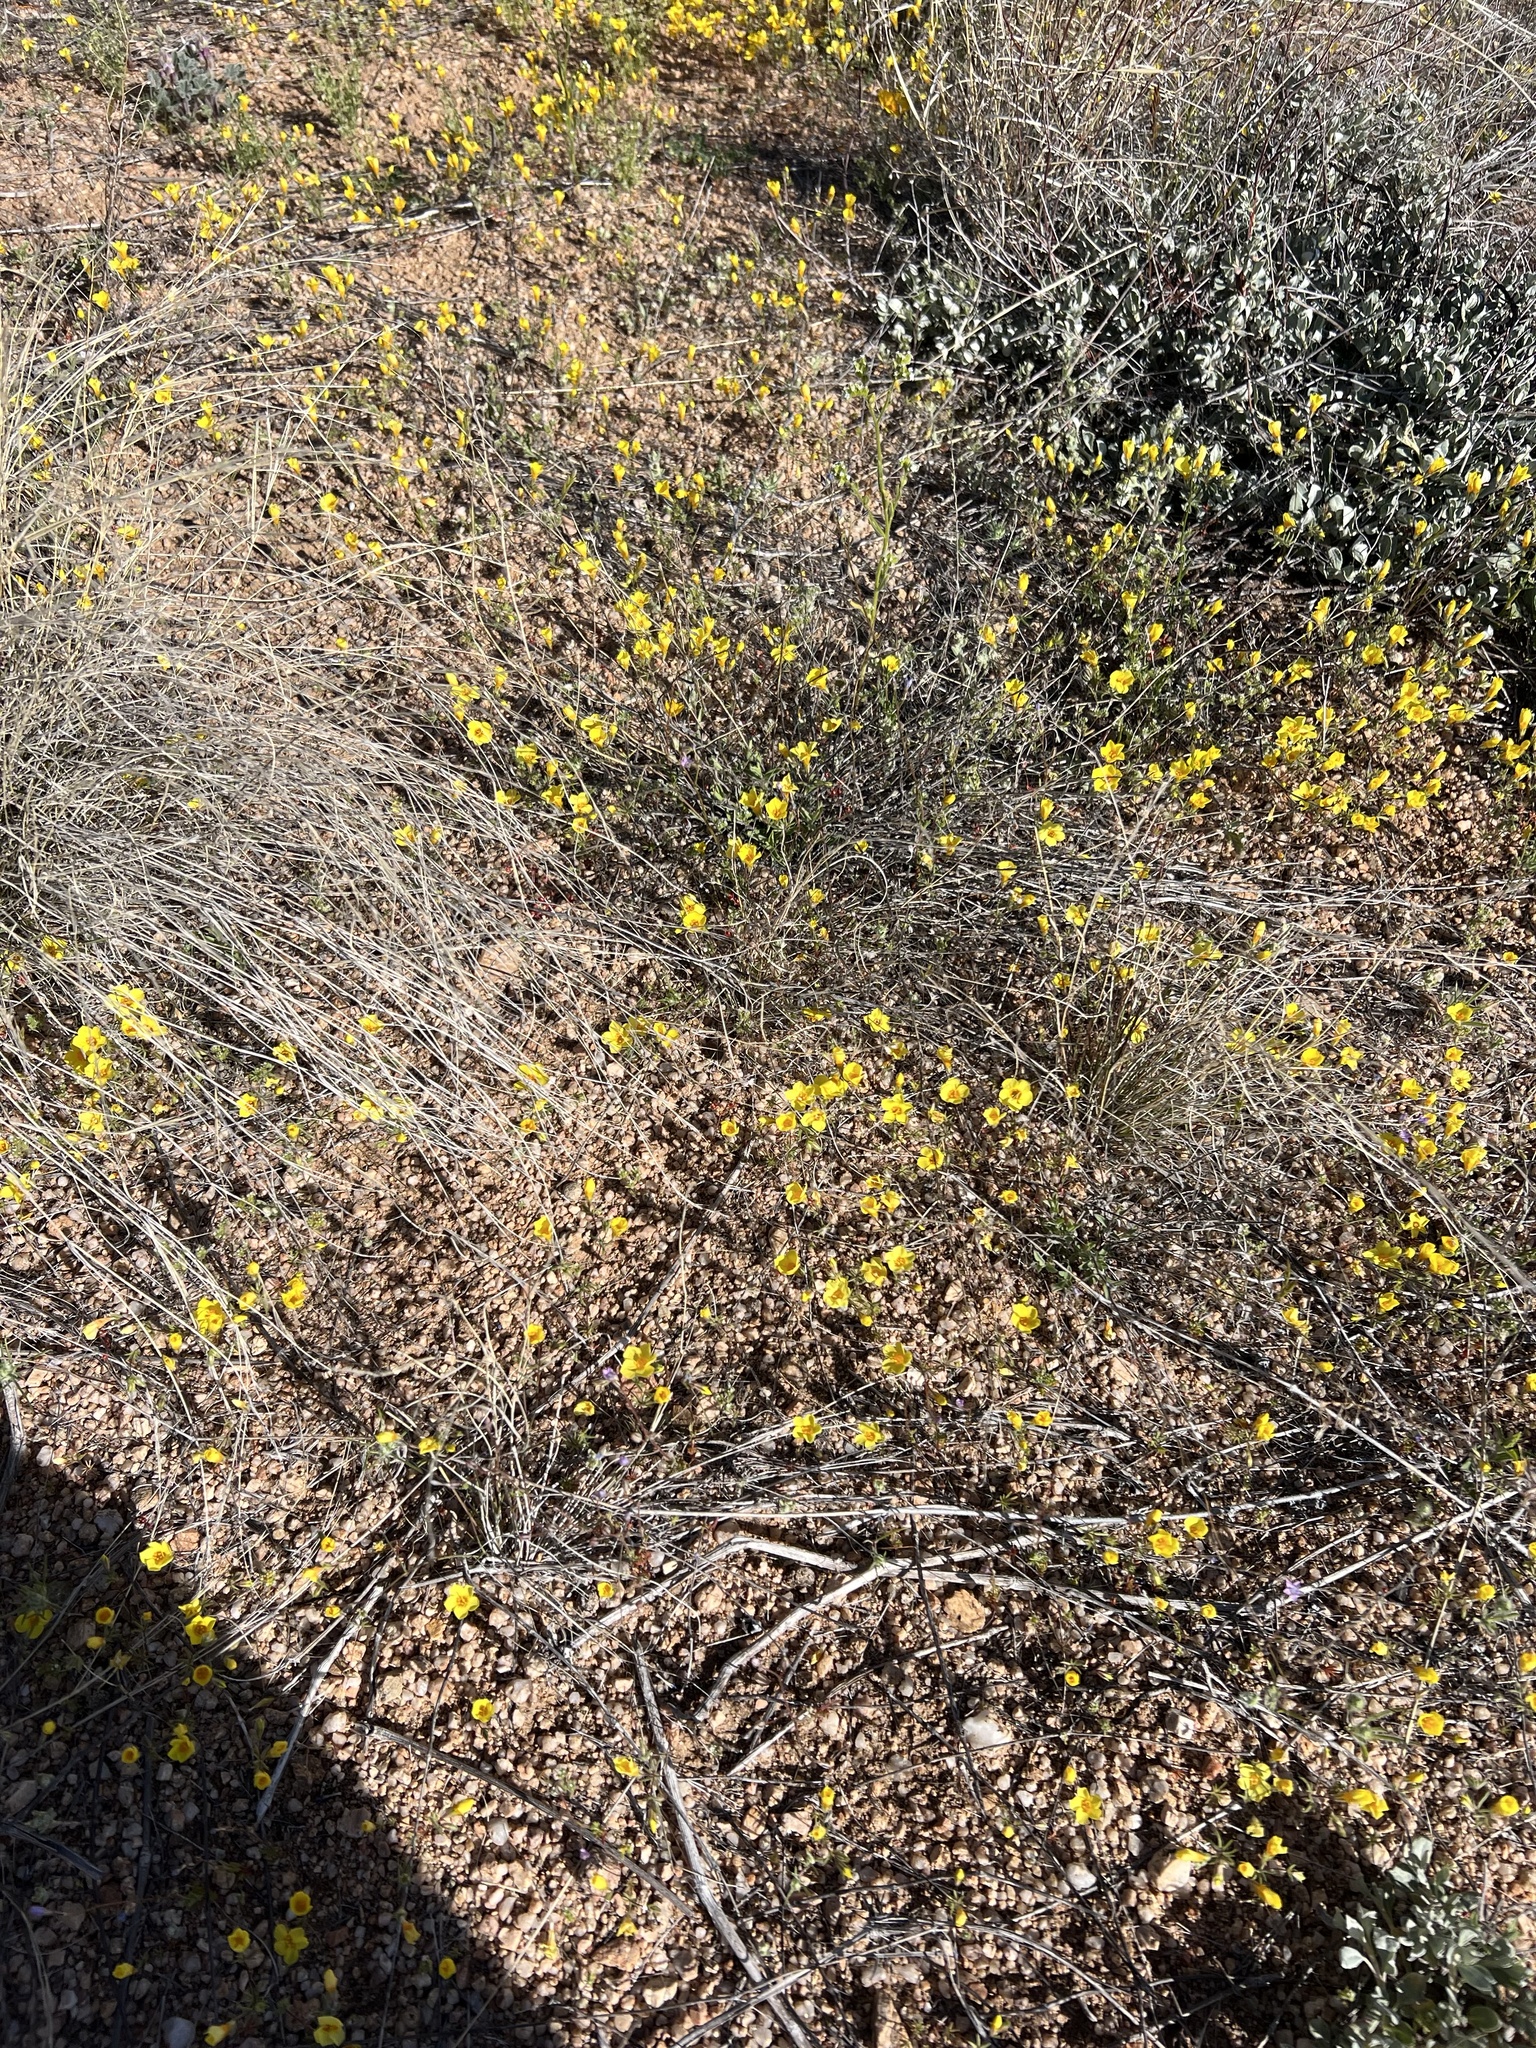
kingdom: Plantae
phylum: Tracheophyta
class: Magnoliopsida
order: Ericales
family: Polemoniaceae
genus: Leptosiphon
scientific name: Leptosiphon chrysanthus
